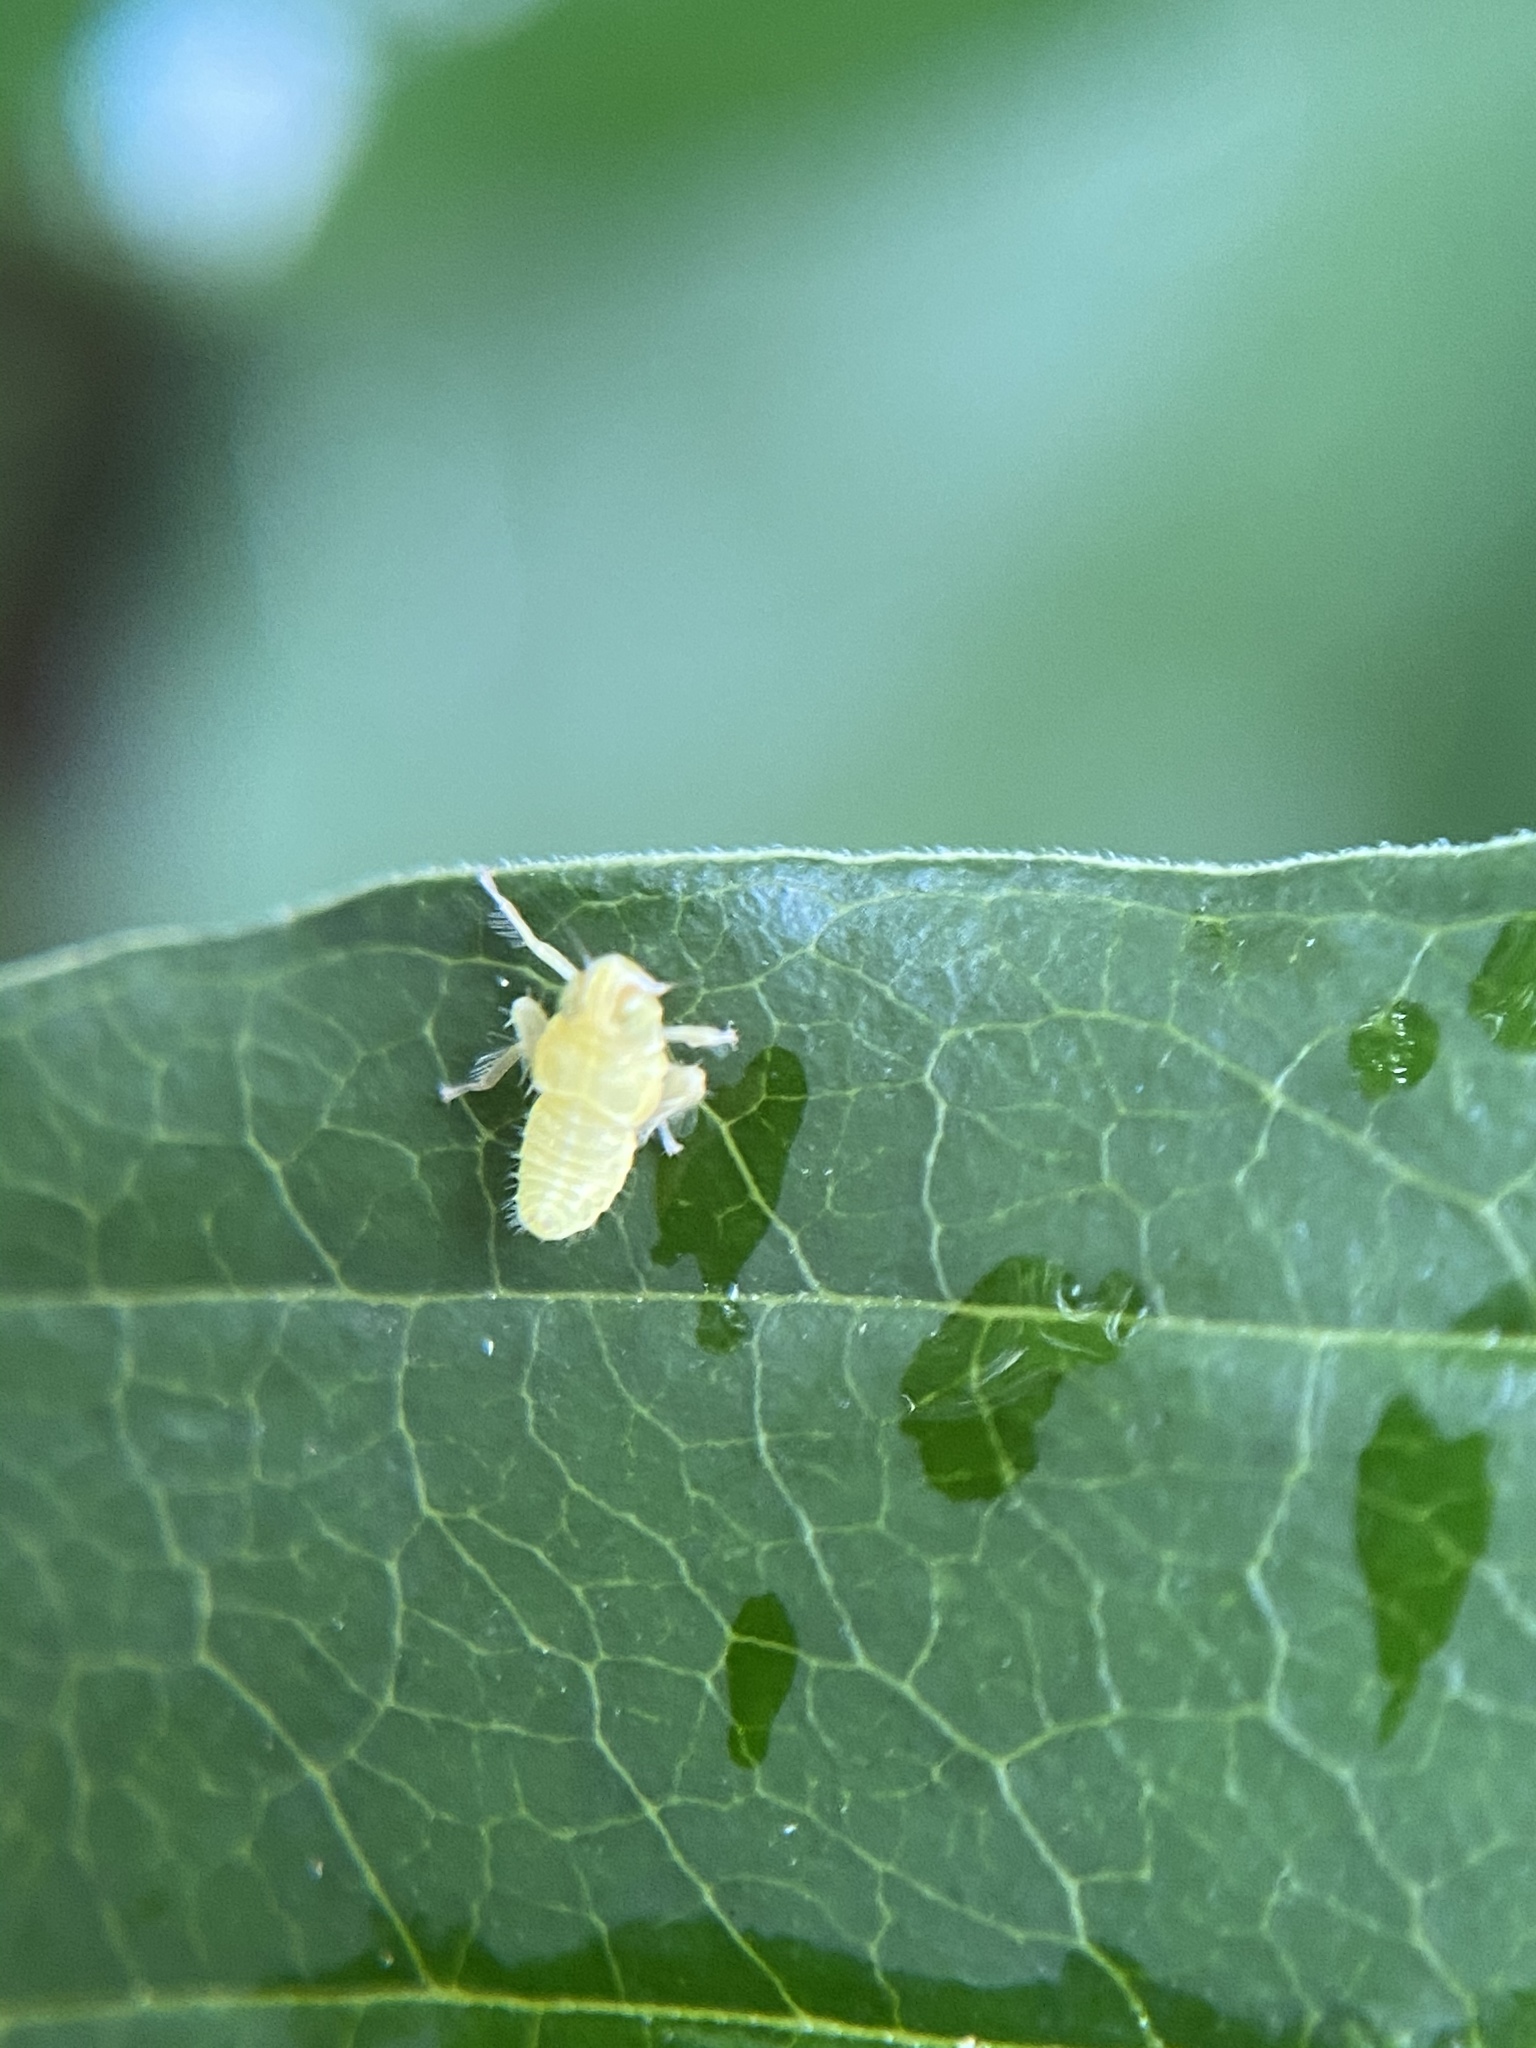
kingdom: Animalia
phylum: Arthropoda
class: Insecta
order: Hemiptera
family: Cicadellidae
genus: Jikradia
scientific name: Jikradia olitoria
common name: Coppery leafhopper
